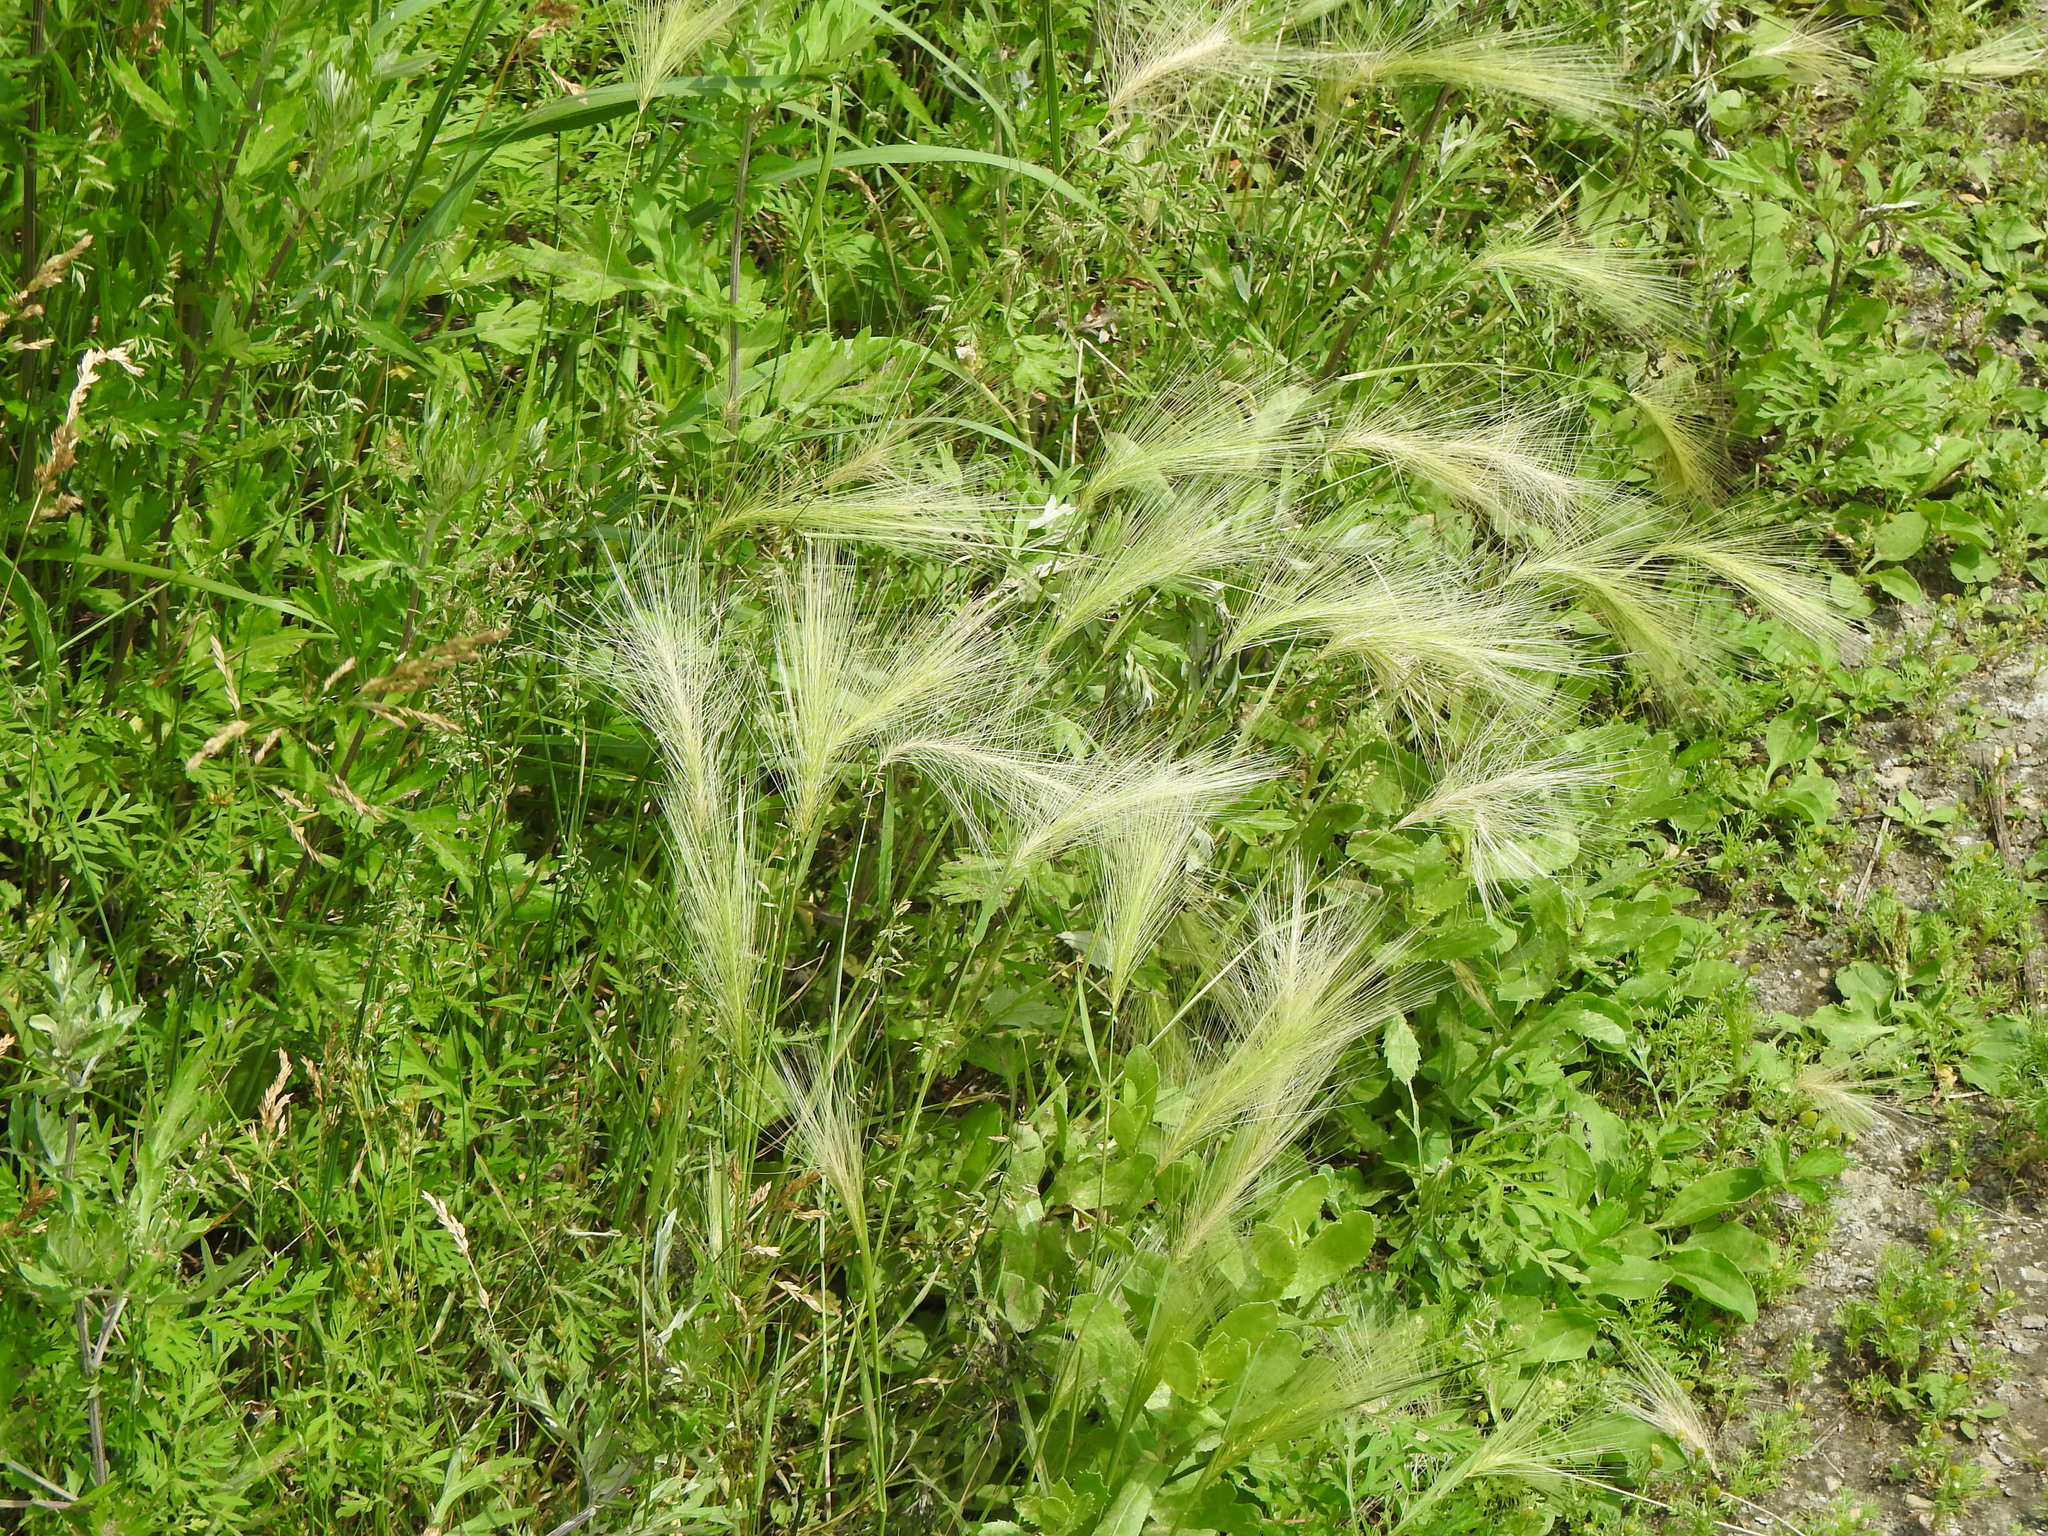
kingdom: Plantae
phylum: Tracheophyta
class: Liliopsida
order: Poales
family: Poaceae
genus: Hordeum
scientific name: Hordeum jubatum
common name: Foxtail barley
